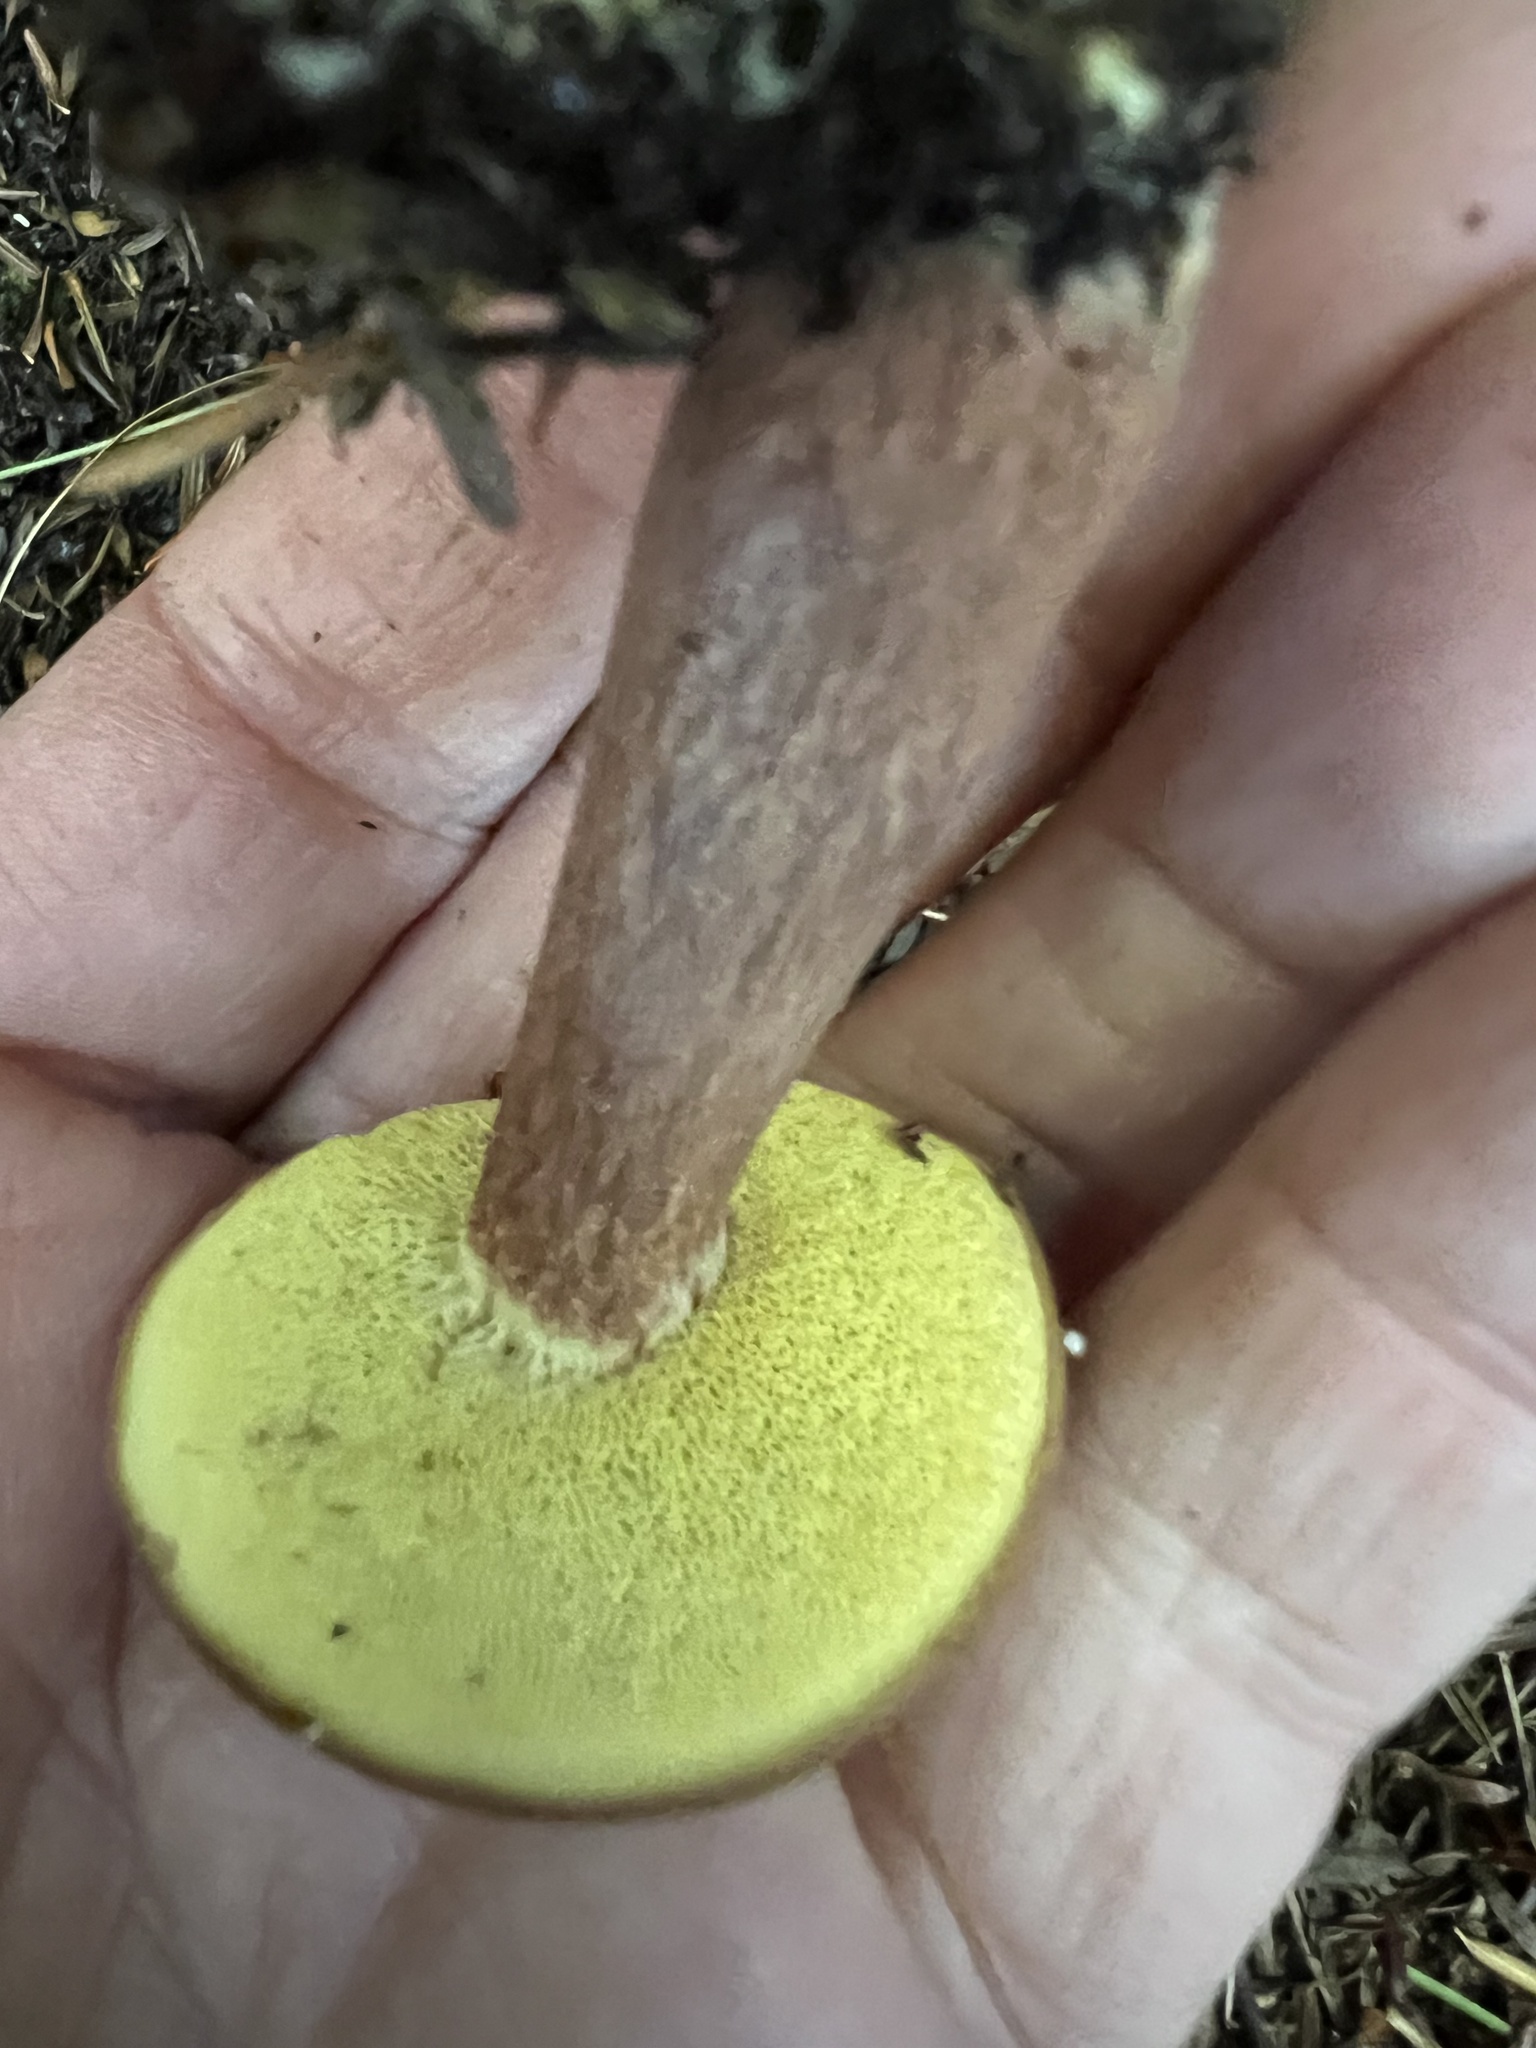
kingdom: Fungi
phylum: Basidiomycota
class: Agaricomycetes
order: Boletales
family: Boletaceae
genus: Baorangia
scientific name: Baorangia bicolor
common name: Two-colored bolete
